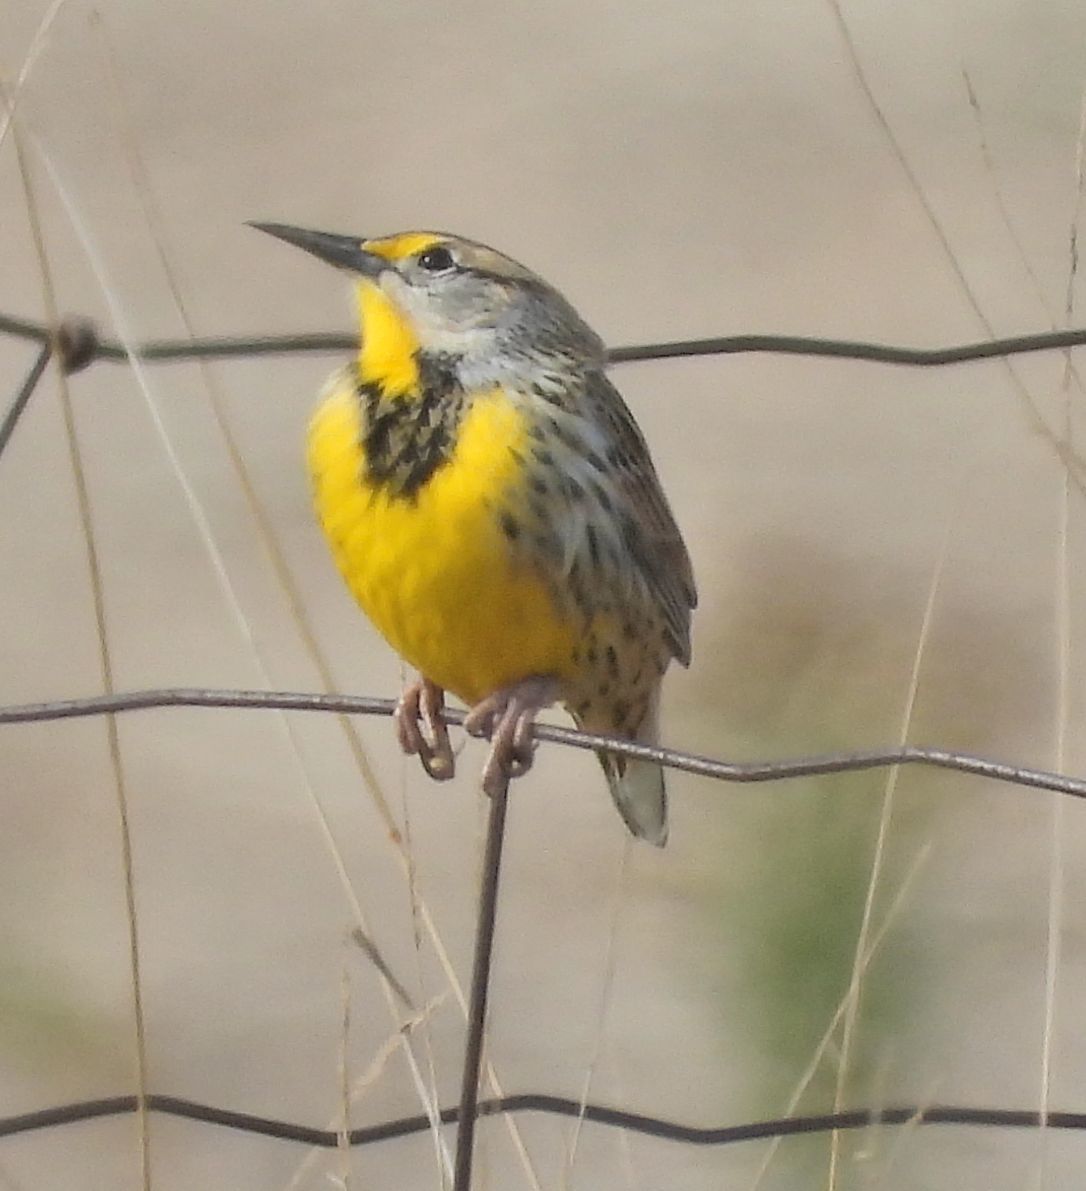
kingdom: Animalia
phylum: Chordata
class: Aves
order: Passeriformes
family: Icteridae
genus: Sturnella
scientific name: Sturnella magna
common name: Eastern meadowlark
